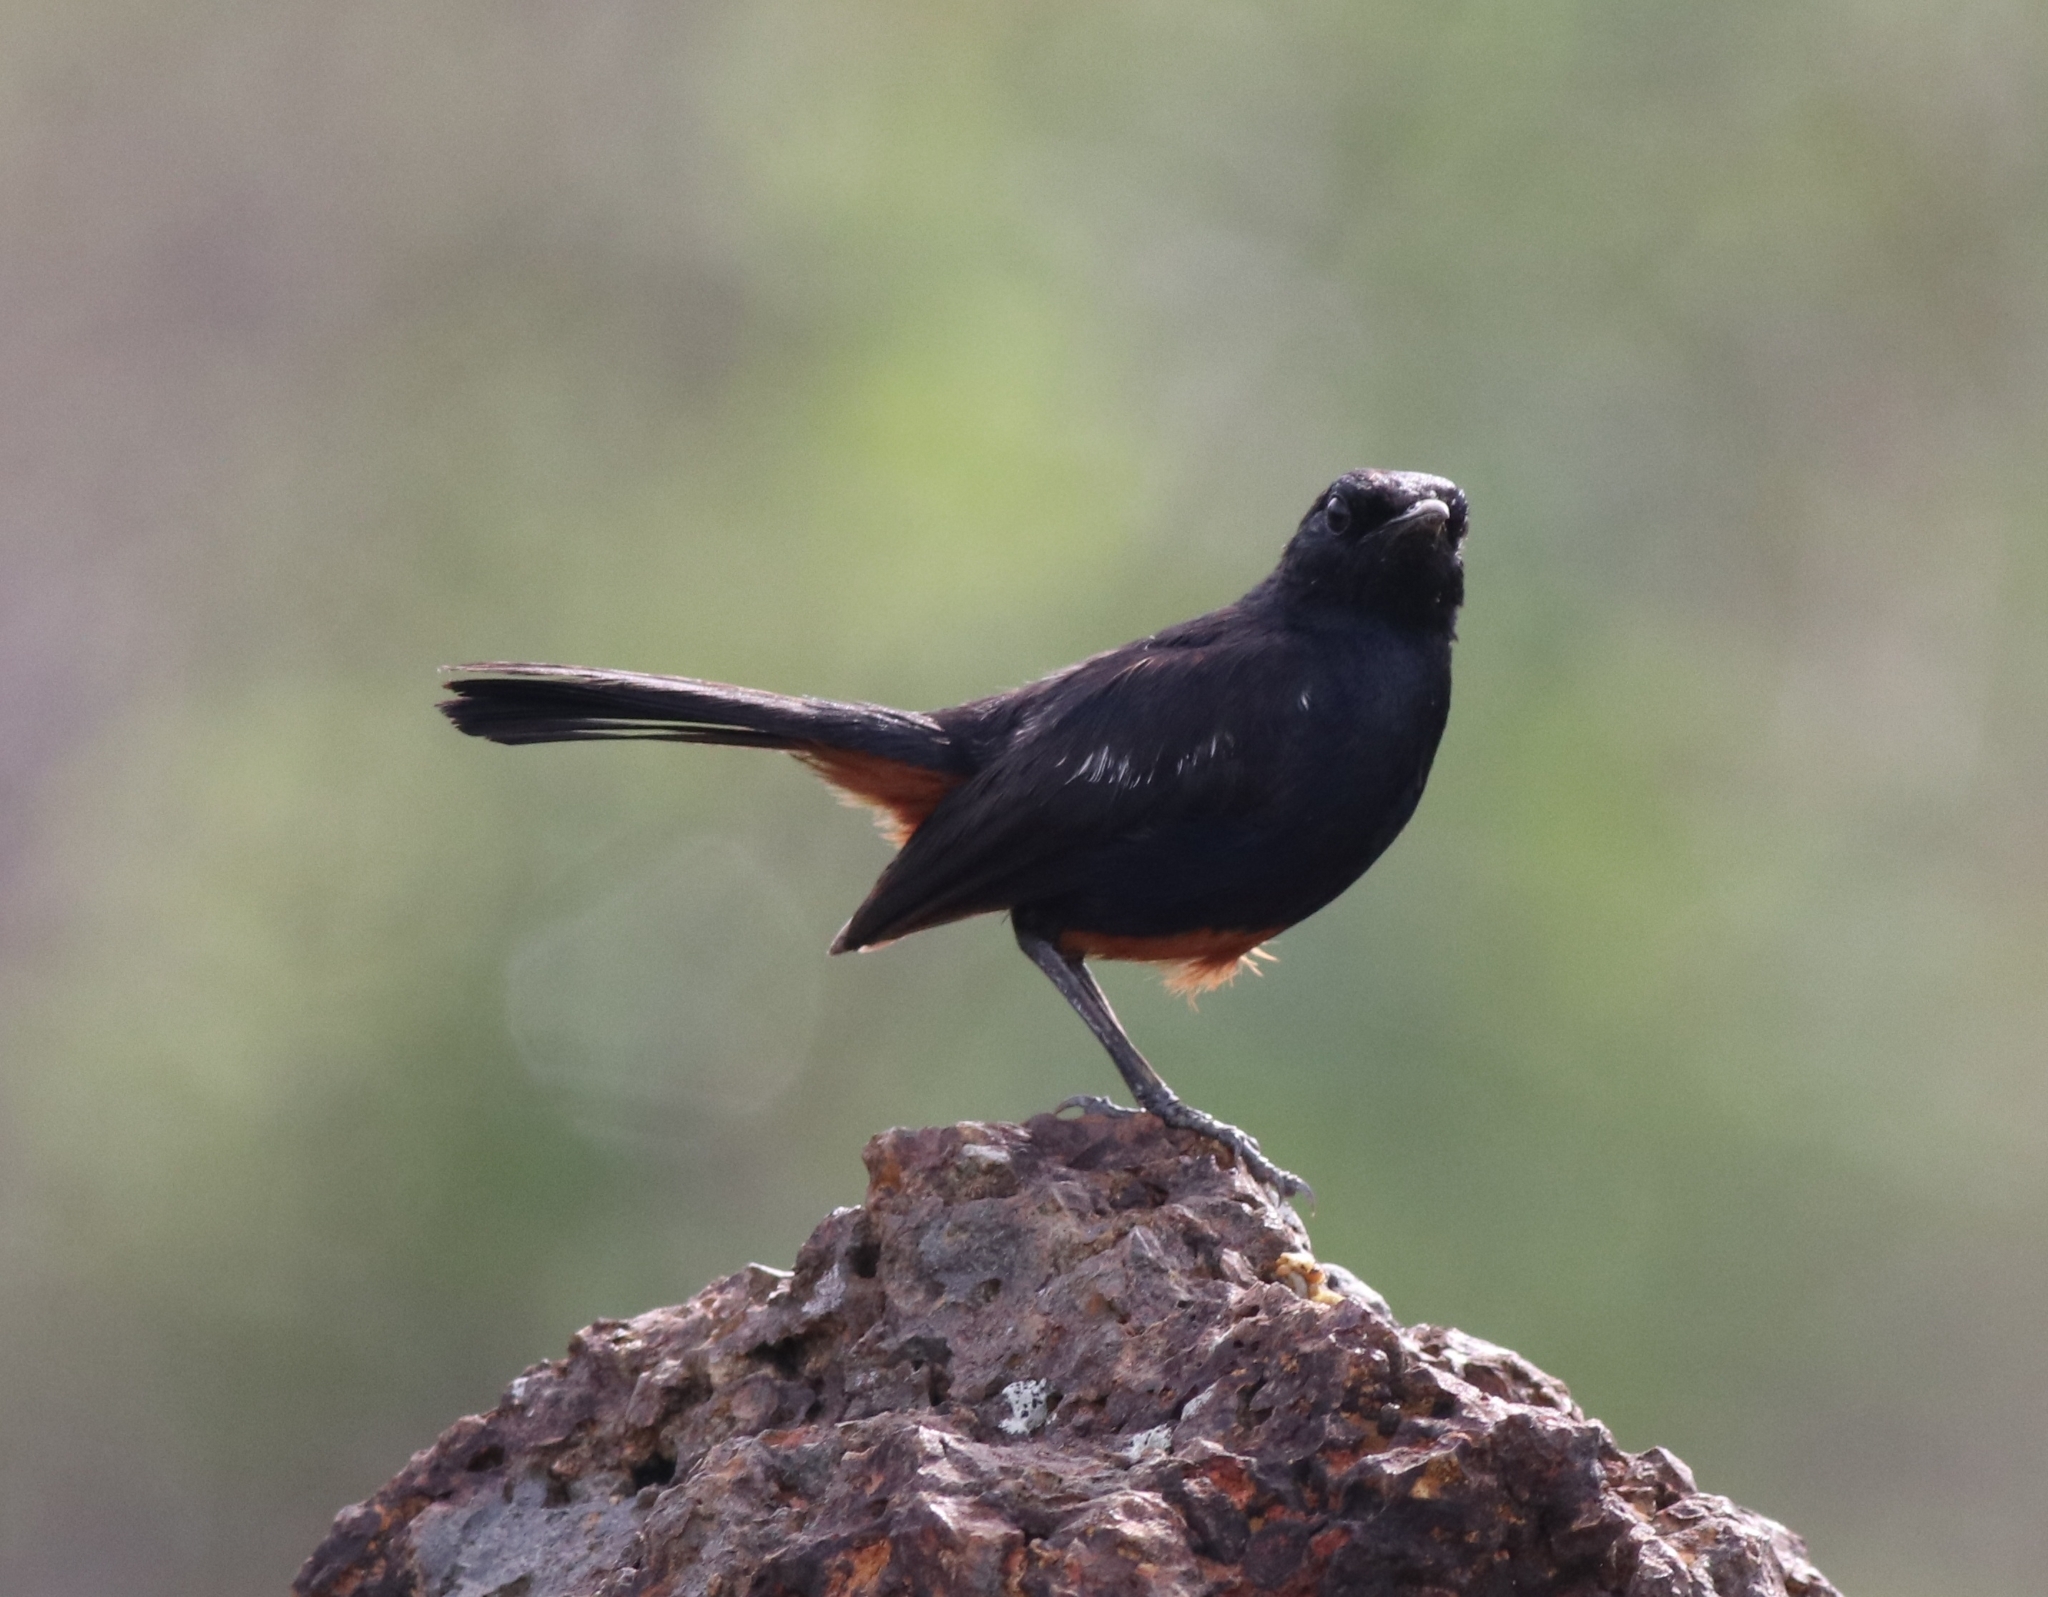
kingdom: Animalia
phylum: Chordata
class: Aves
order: Passeriformes
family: Muscicapidae
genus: Saxicoloides
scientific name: Saxicoloides fulicatus
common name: Indian robin
